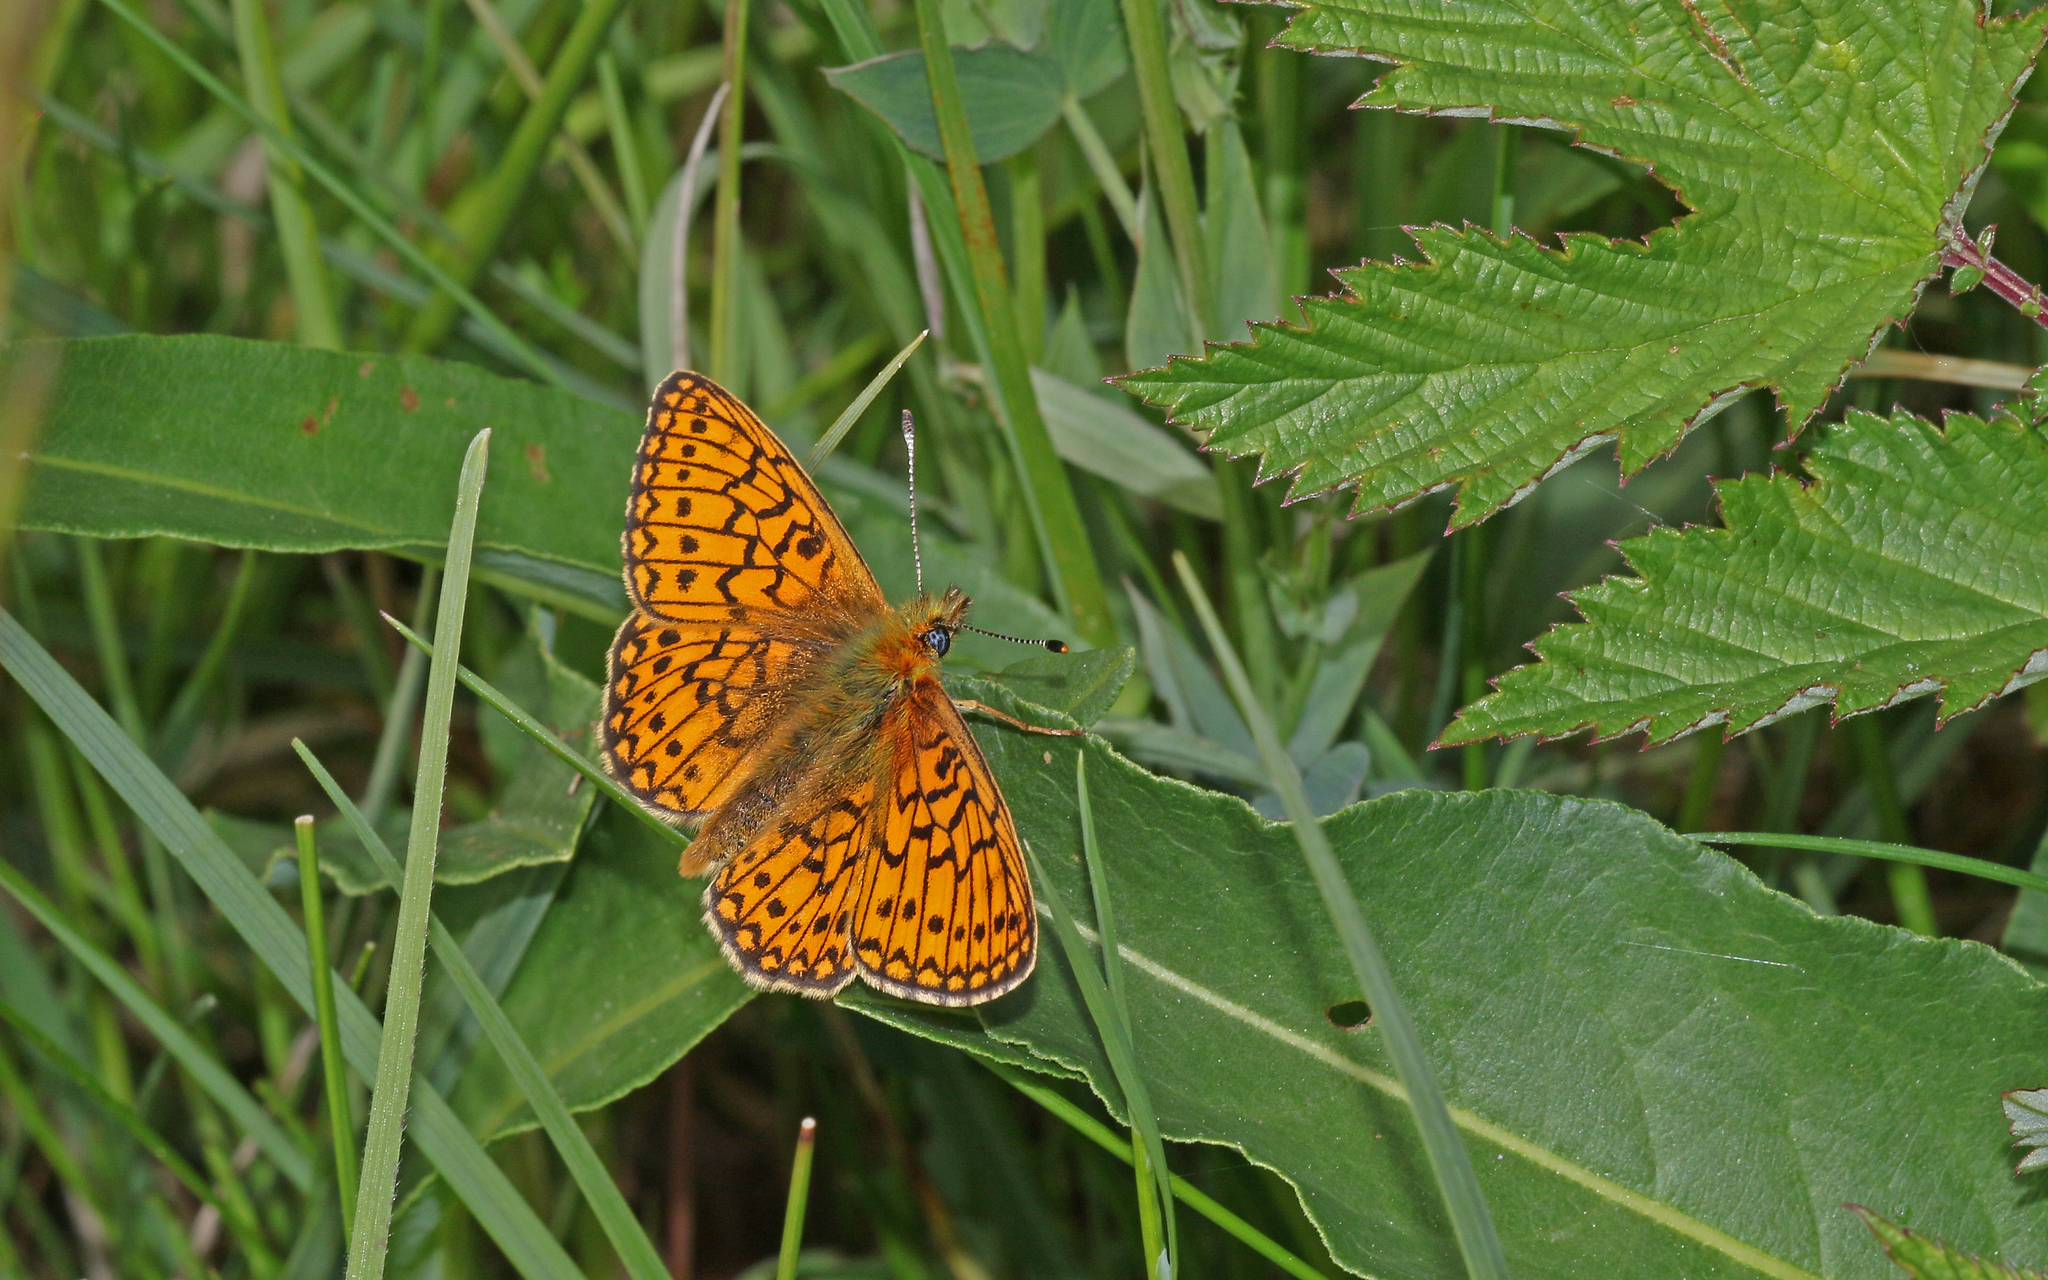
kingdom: Animalia
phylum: Arthropoda
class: Insecta
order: Lepidoptera
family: Nymphalidae
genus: Boloria
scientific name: Boloria eunomia
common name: Bog fritillary
